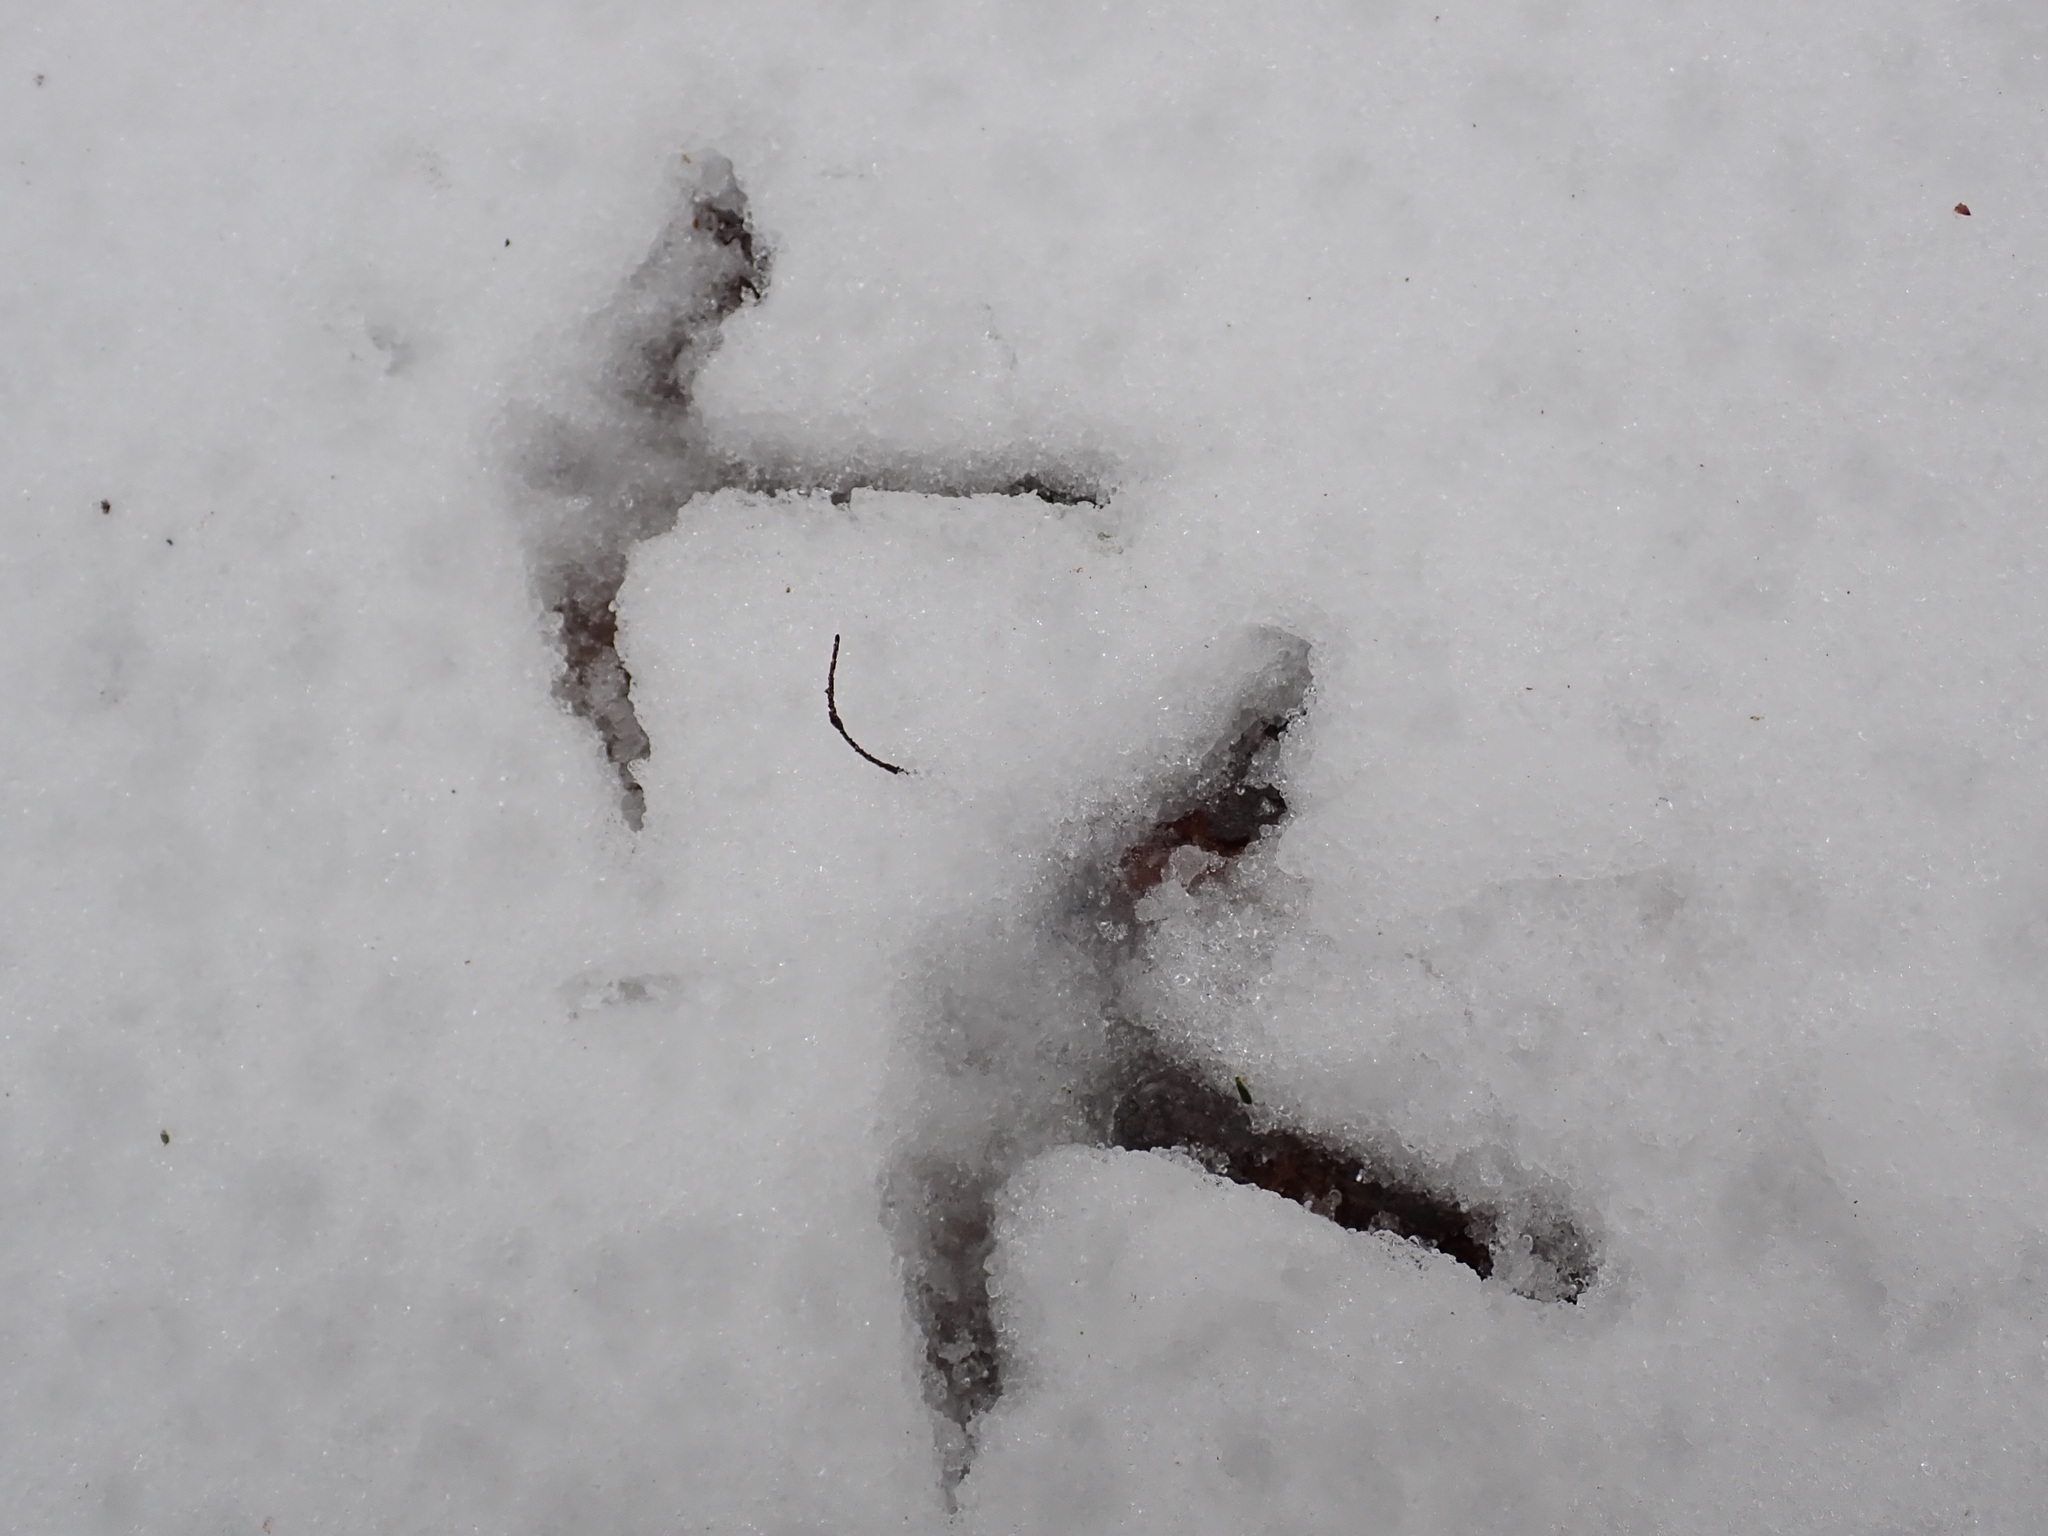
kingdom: Animalia
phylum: Chordata
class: Aves
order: Galliformes
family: Phasianidae
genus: Meleagris
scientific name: Meleagris gallopavo
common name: Wild turkey
